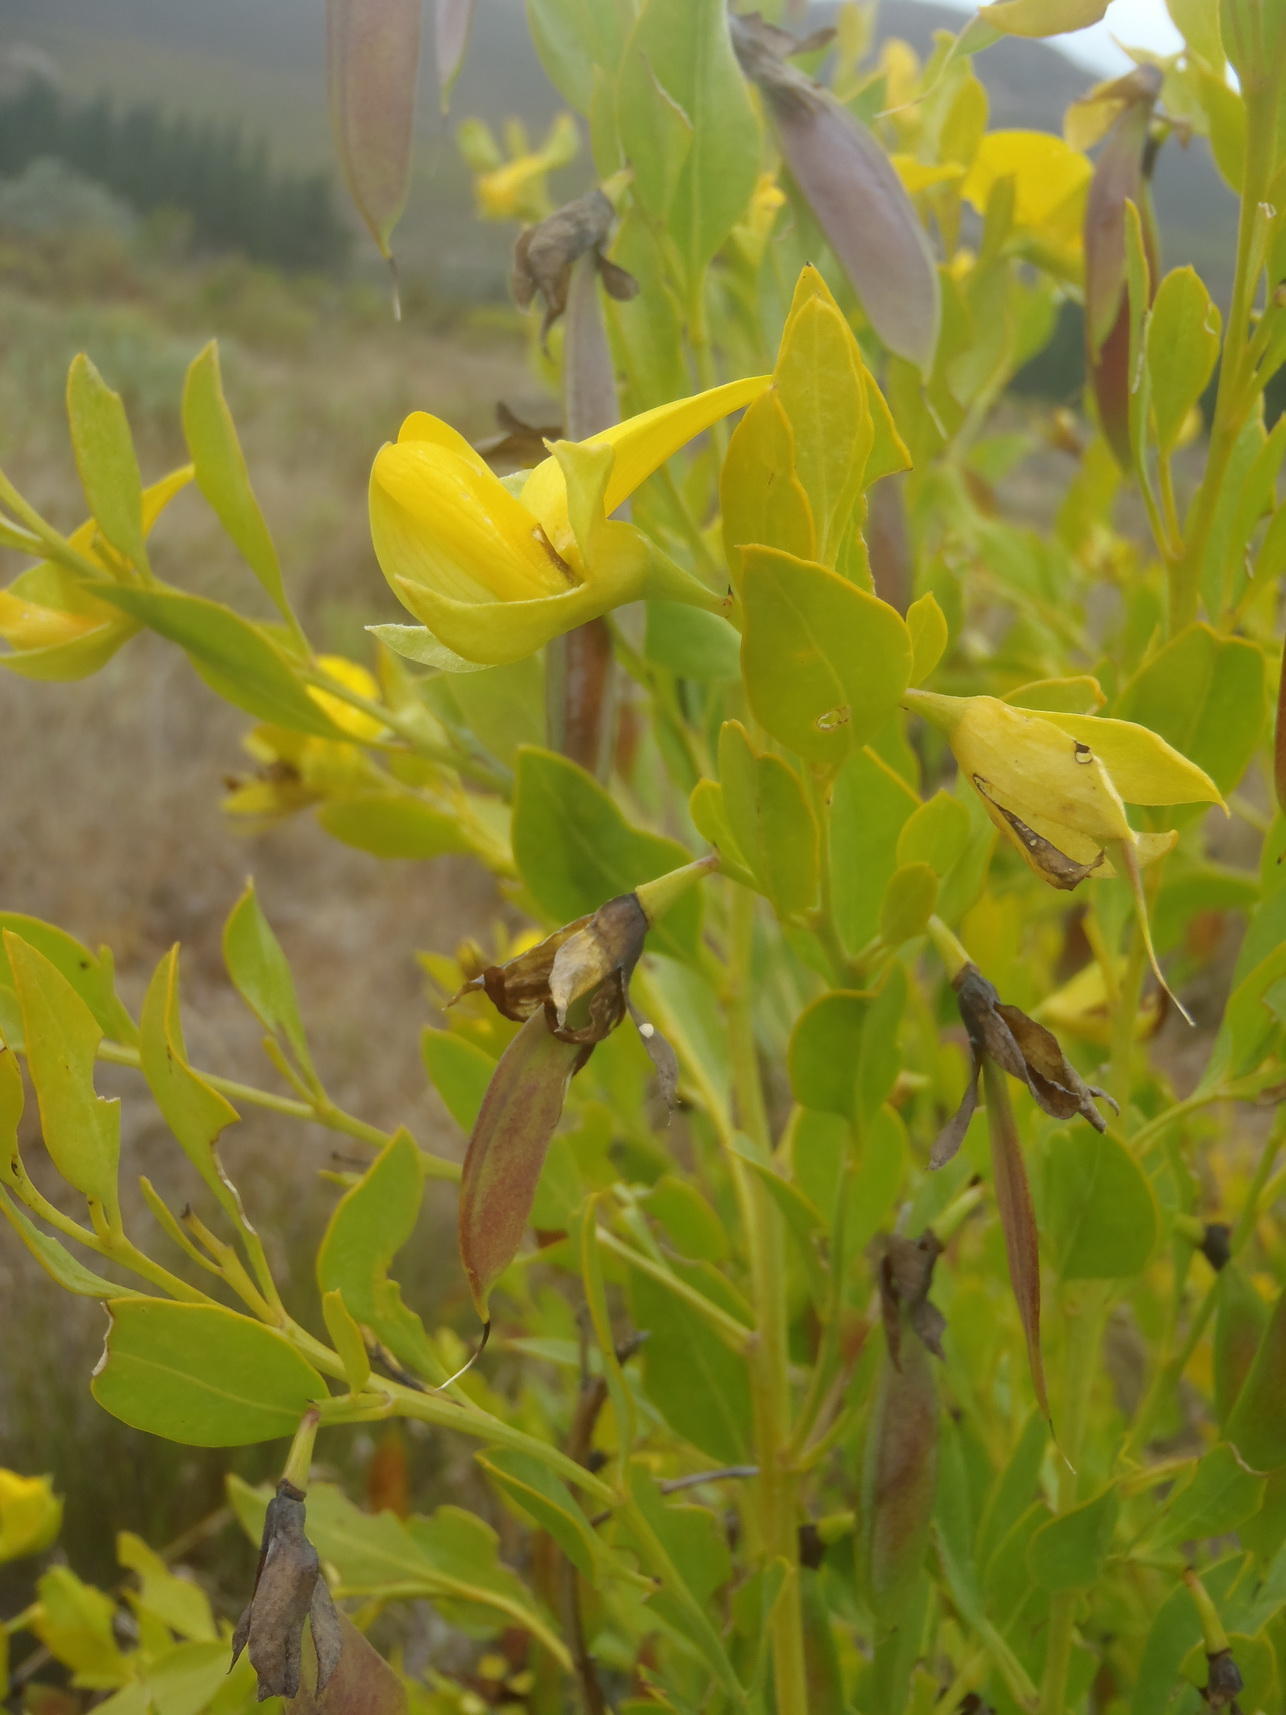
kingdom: Plantae
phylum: Tracheophyta
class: Magnoliopsida
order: Fabales
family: Fabaceae
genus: Rafnia
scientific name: Rafnia vlokii
